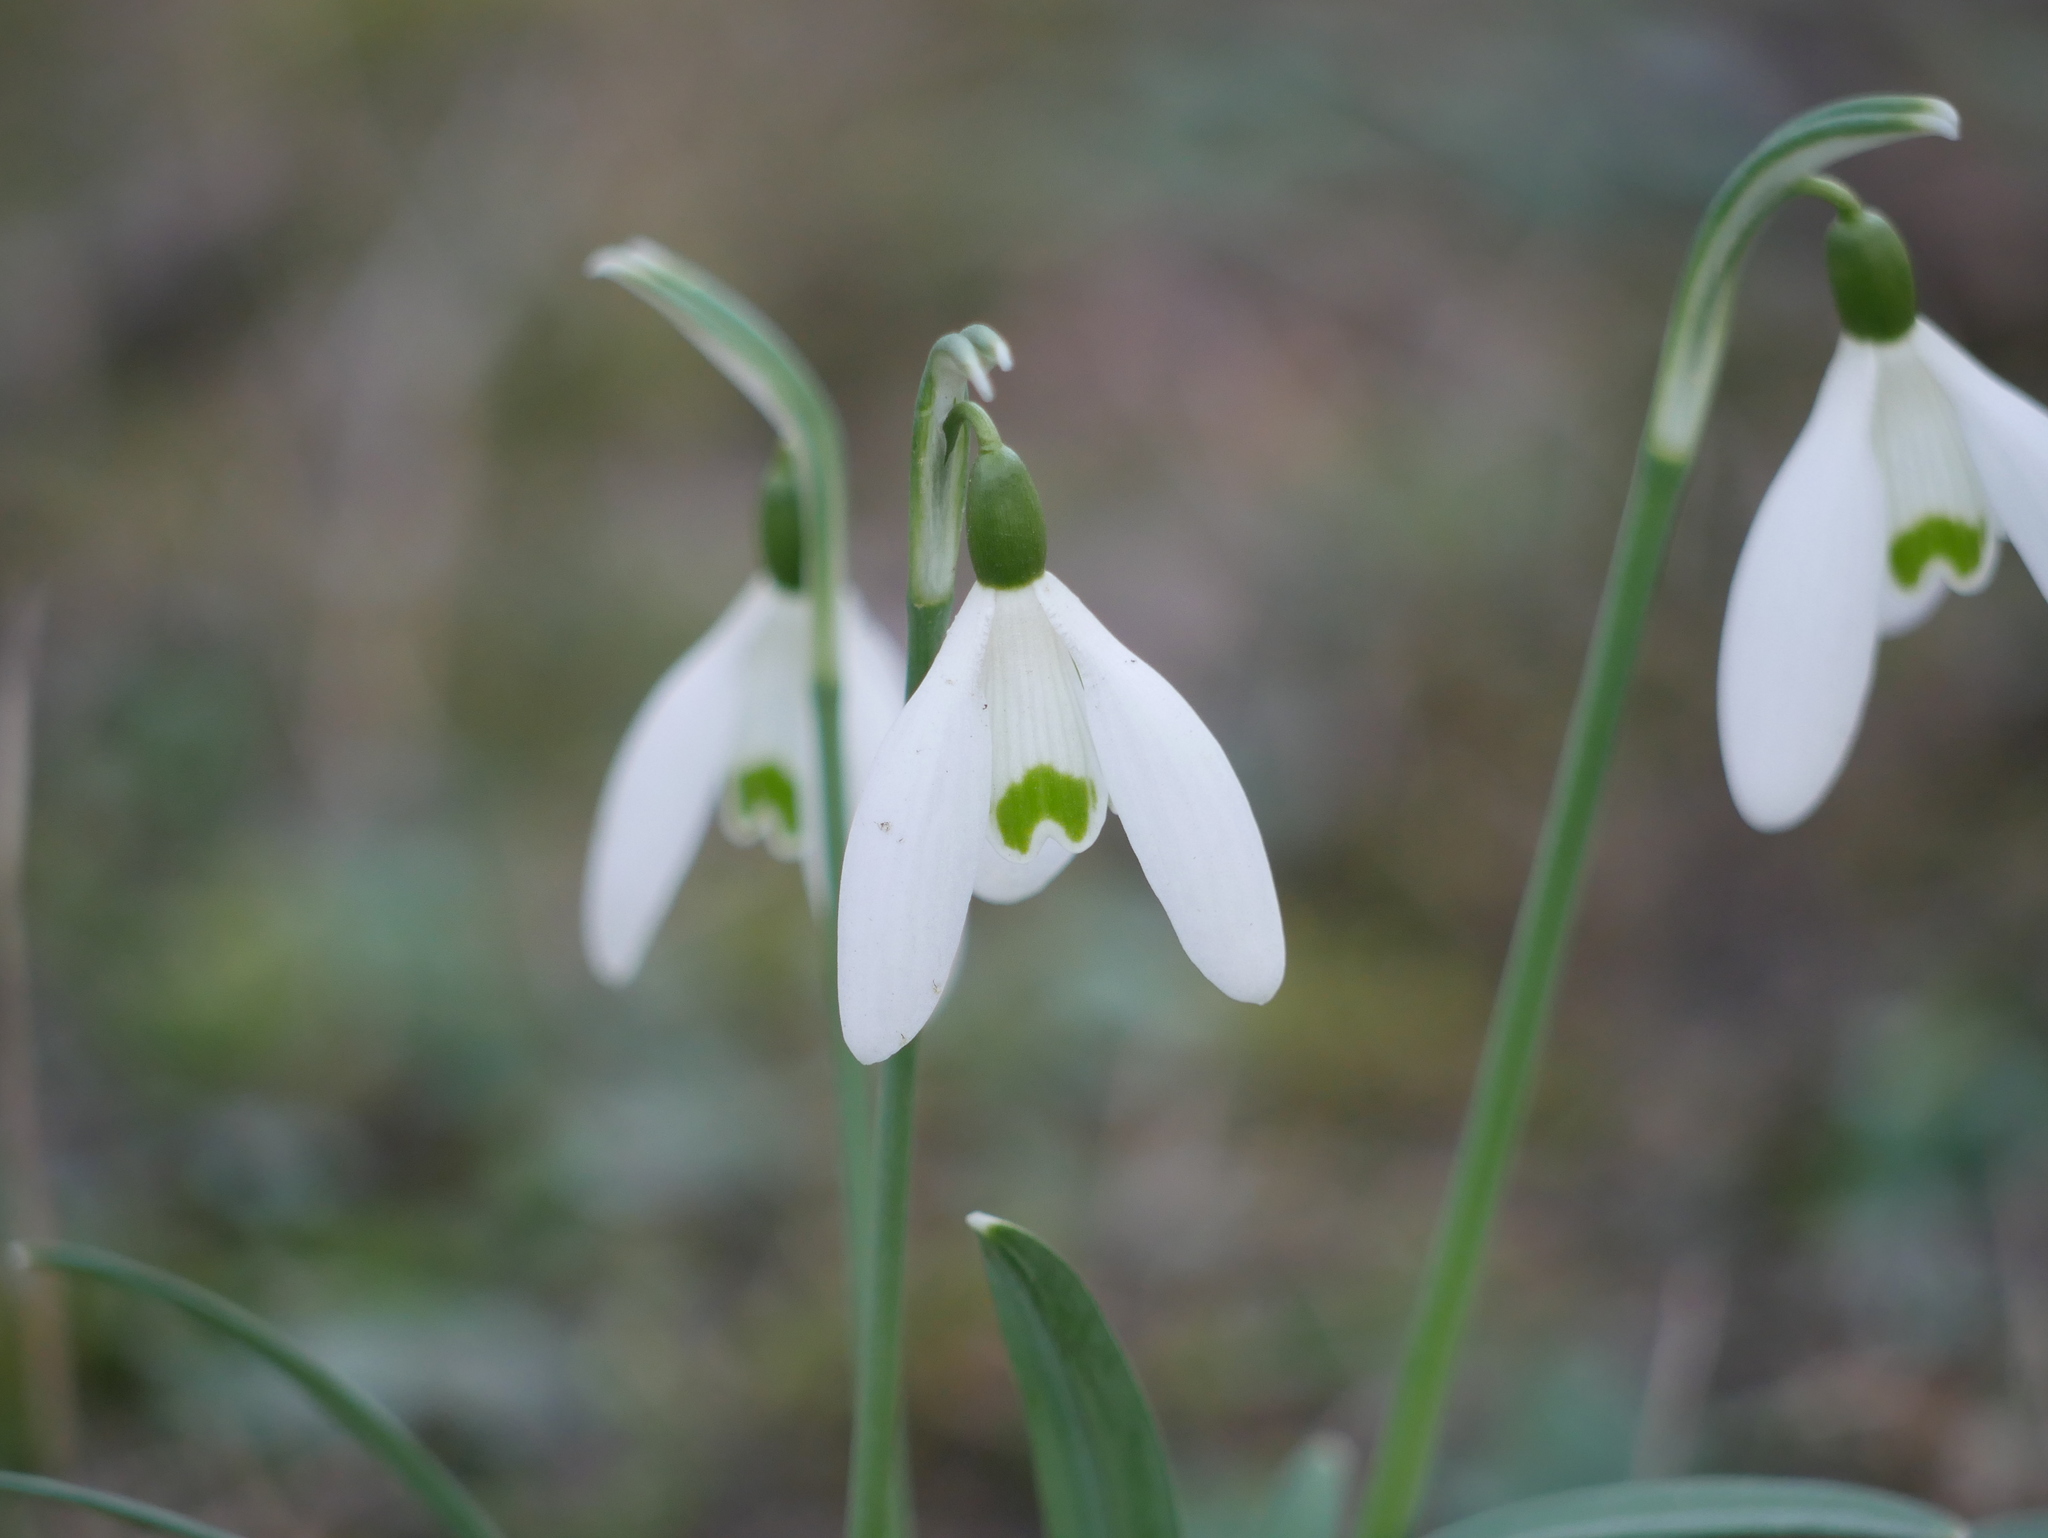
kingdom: Plantae
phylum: Tracheophyta
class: Liliopsida
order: Asparagales
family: Amaryllidaceae
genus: Galanthus
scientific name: Galanthus nivalis
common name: Snowdrop
